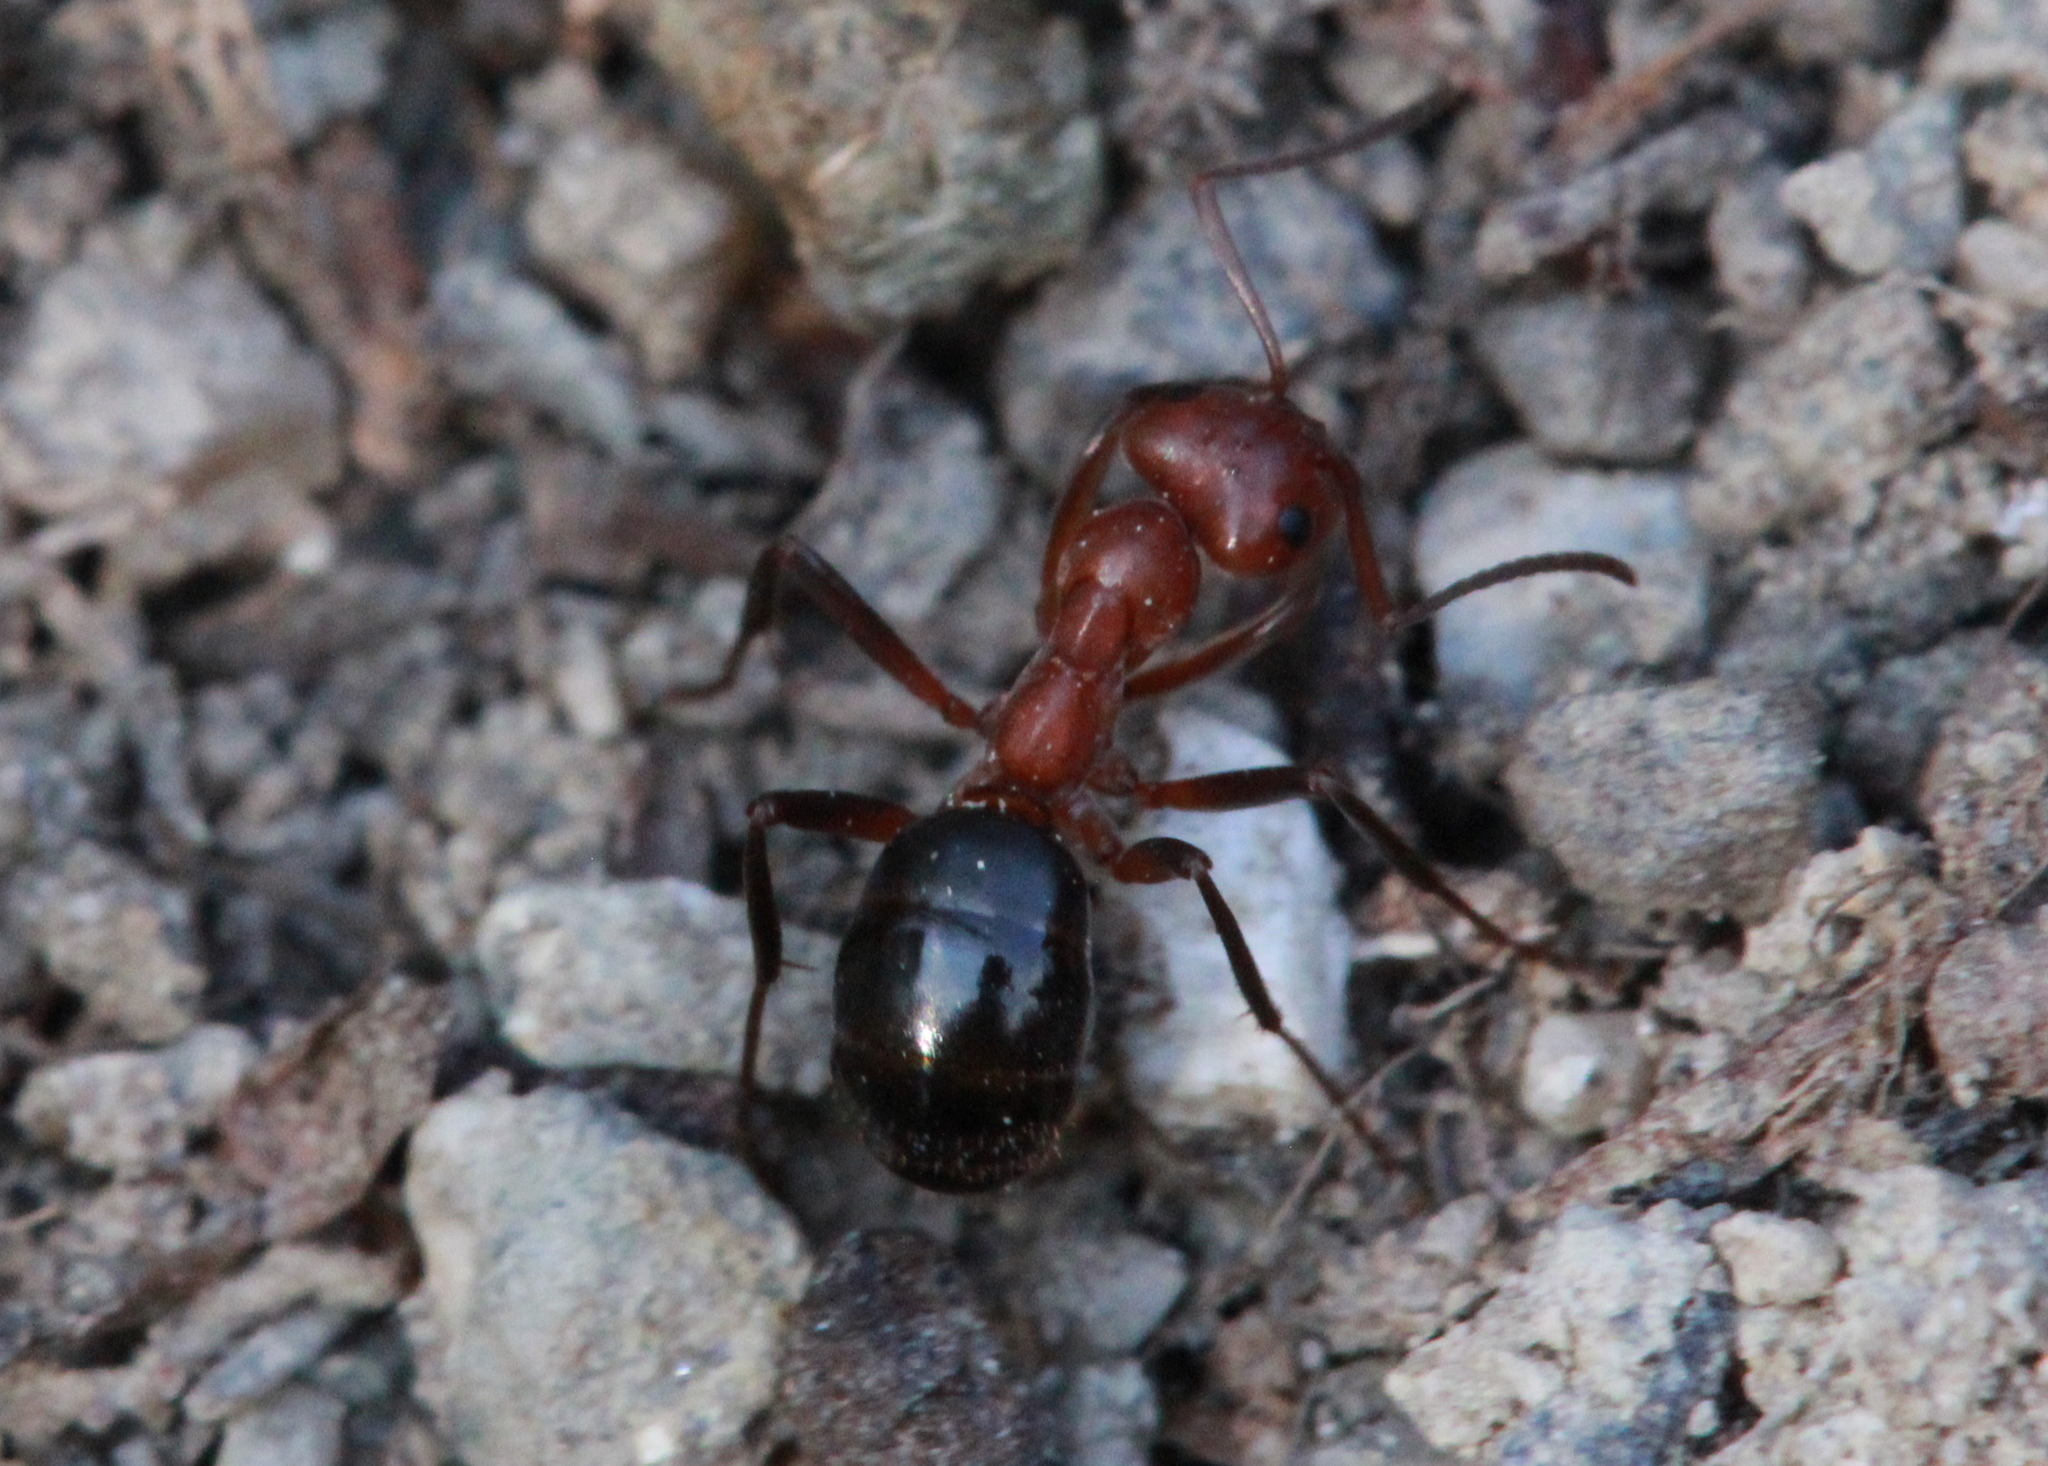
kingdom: Animalia
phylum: Arthropoda
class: Insecta
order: Hymenoptera
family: Formicidae
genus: Formica
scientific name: Formica exsectoides
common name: Allegheny mound ant
